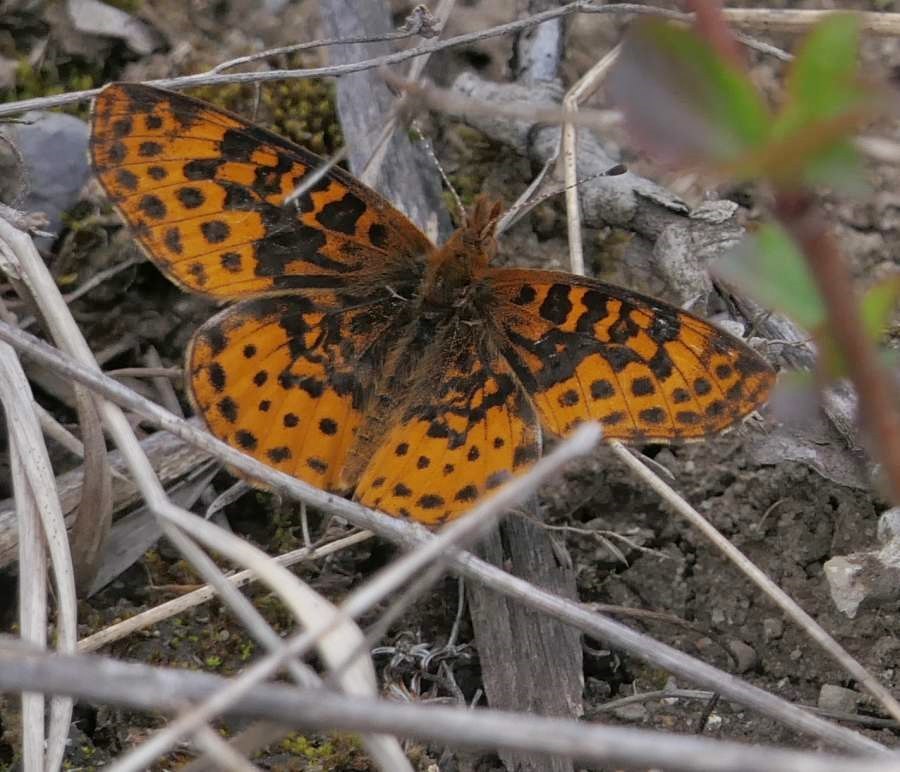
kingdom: Animalia
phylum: Arthropoda
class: Insecta
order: Lepidoptera
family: Nymphalidae
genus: Clossiana
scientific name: Clossiana toddi
